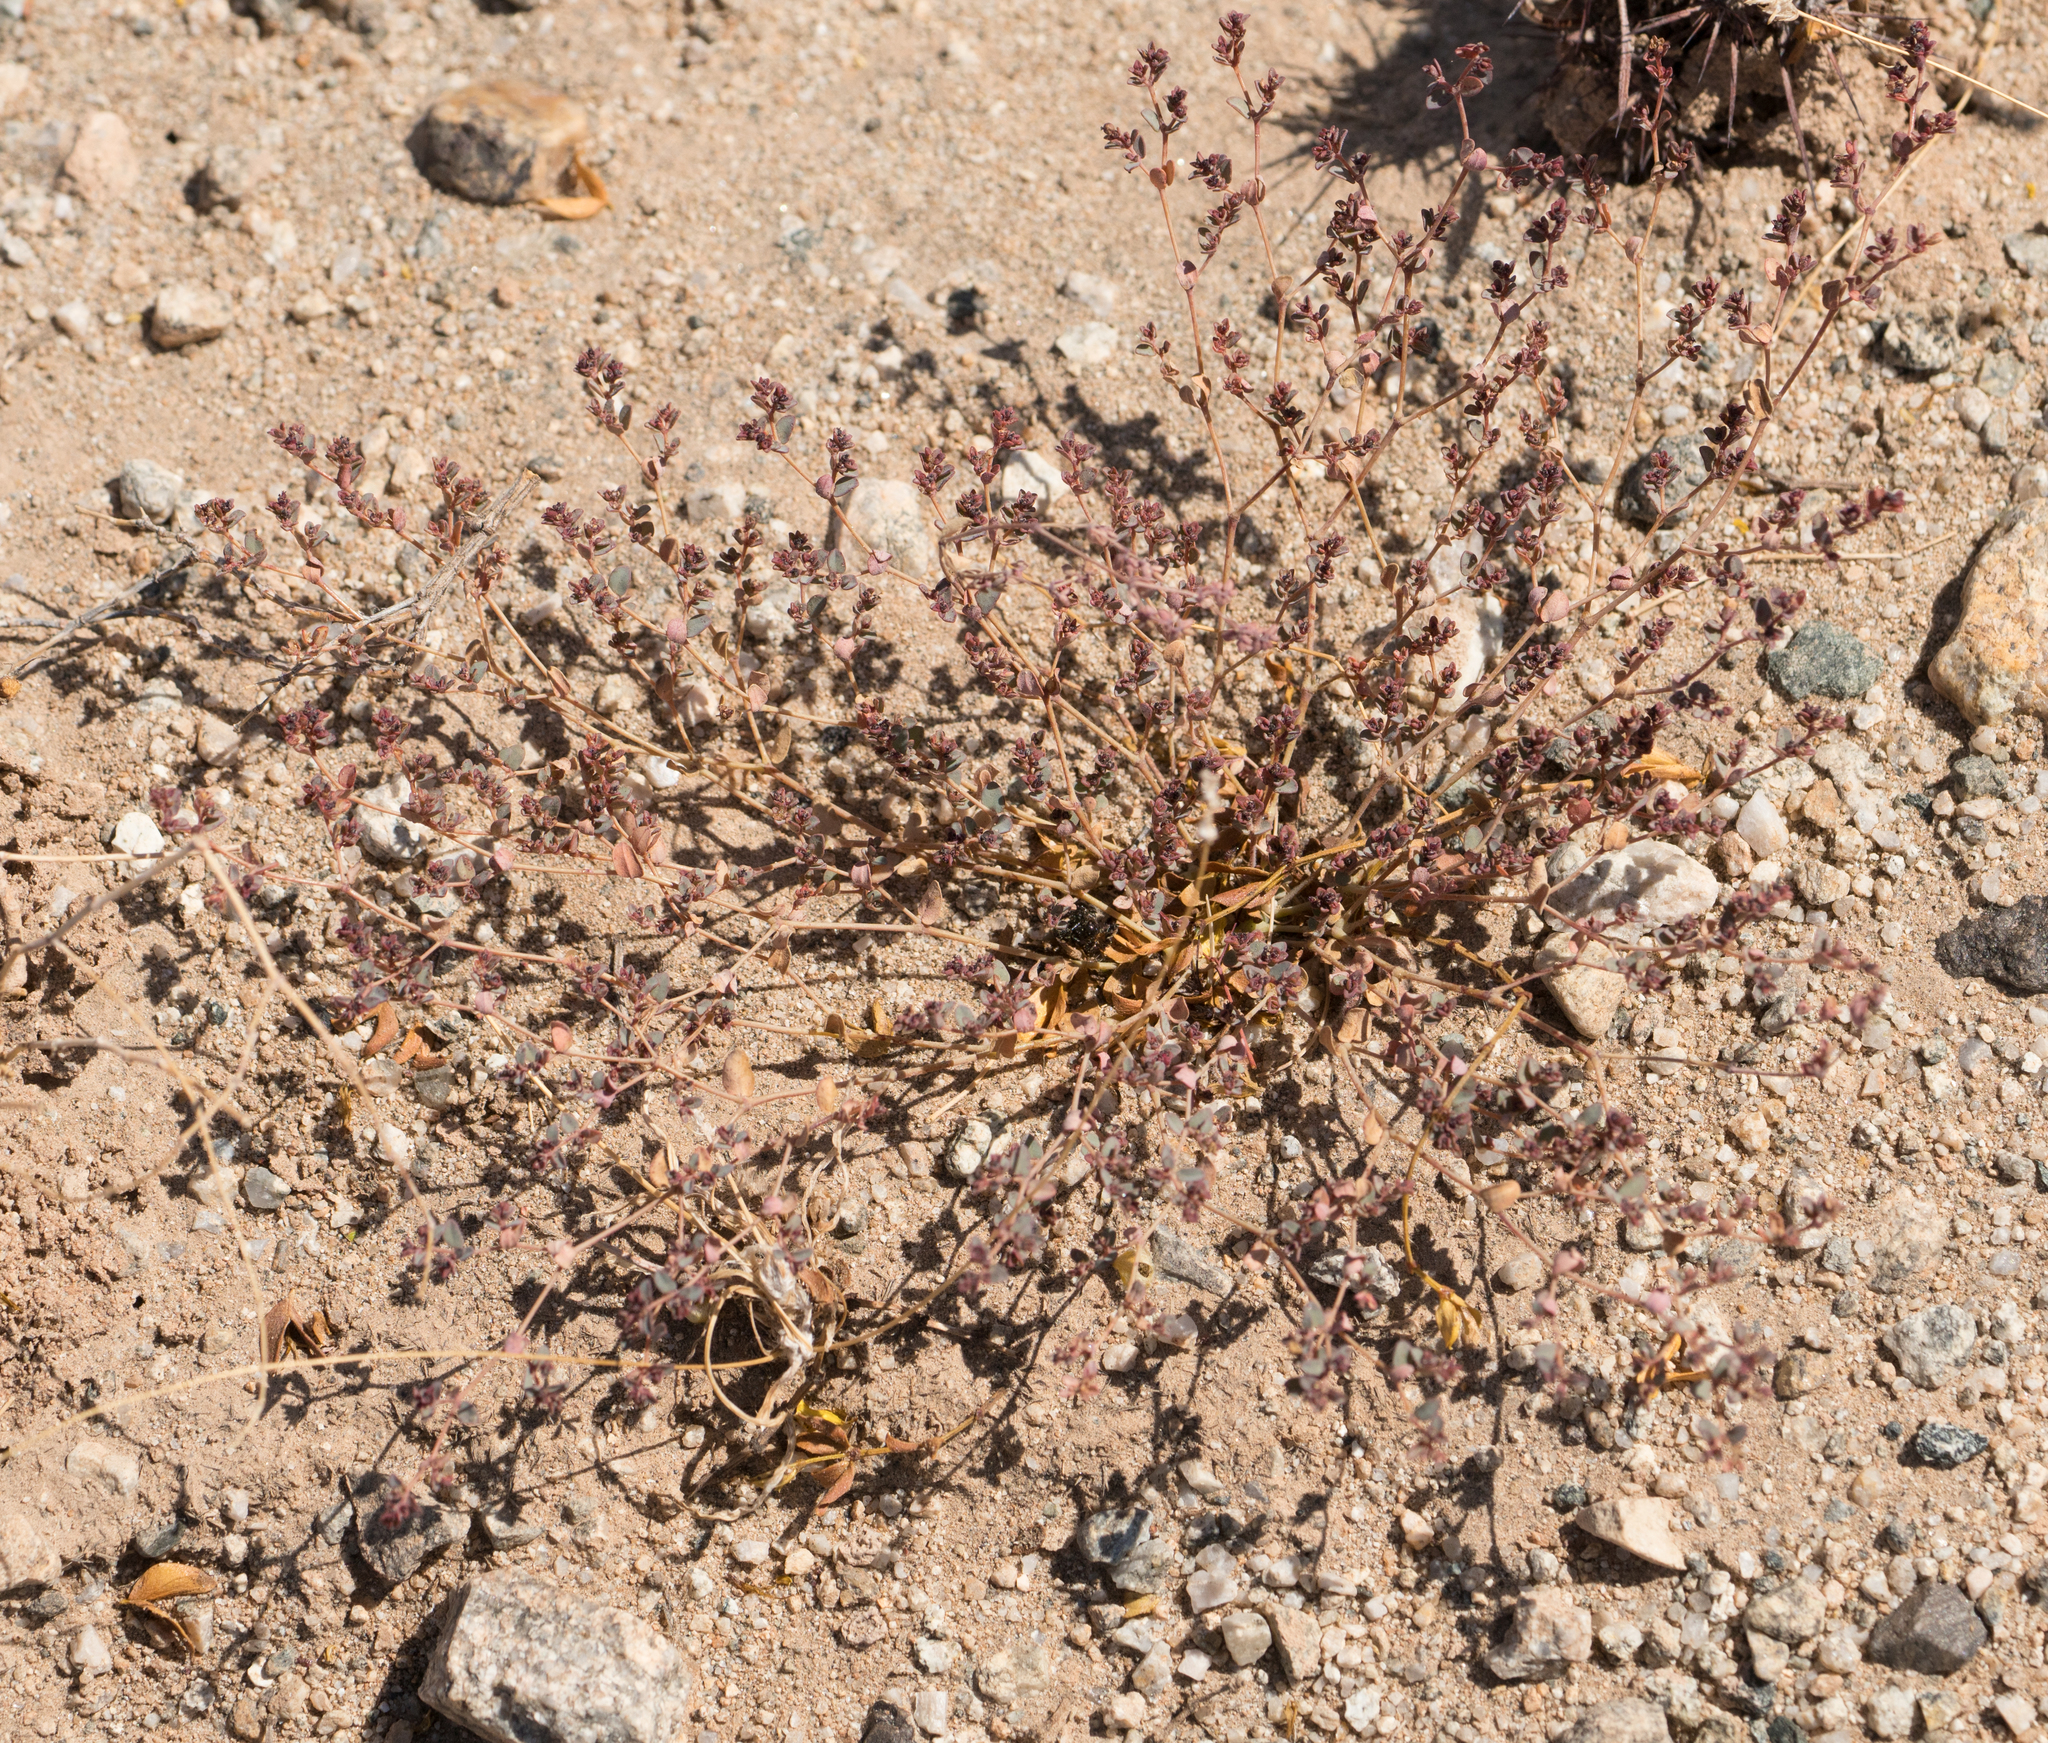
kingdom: Plantae
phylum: Tracheophyta
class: Magnoliopsida
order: Malpighiales
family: Euphorbiaceae
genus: Euphorbia
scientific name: Euphorbia polycarpa
